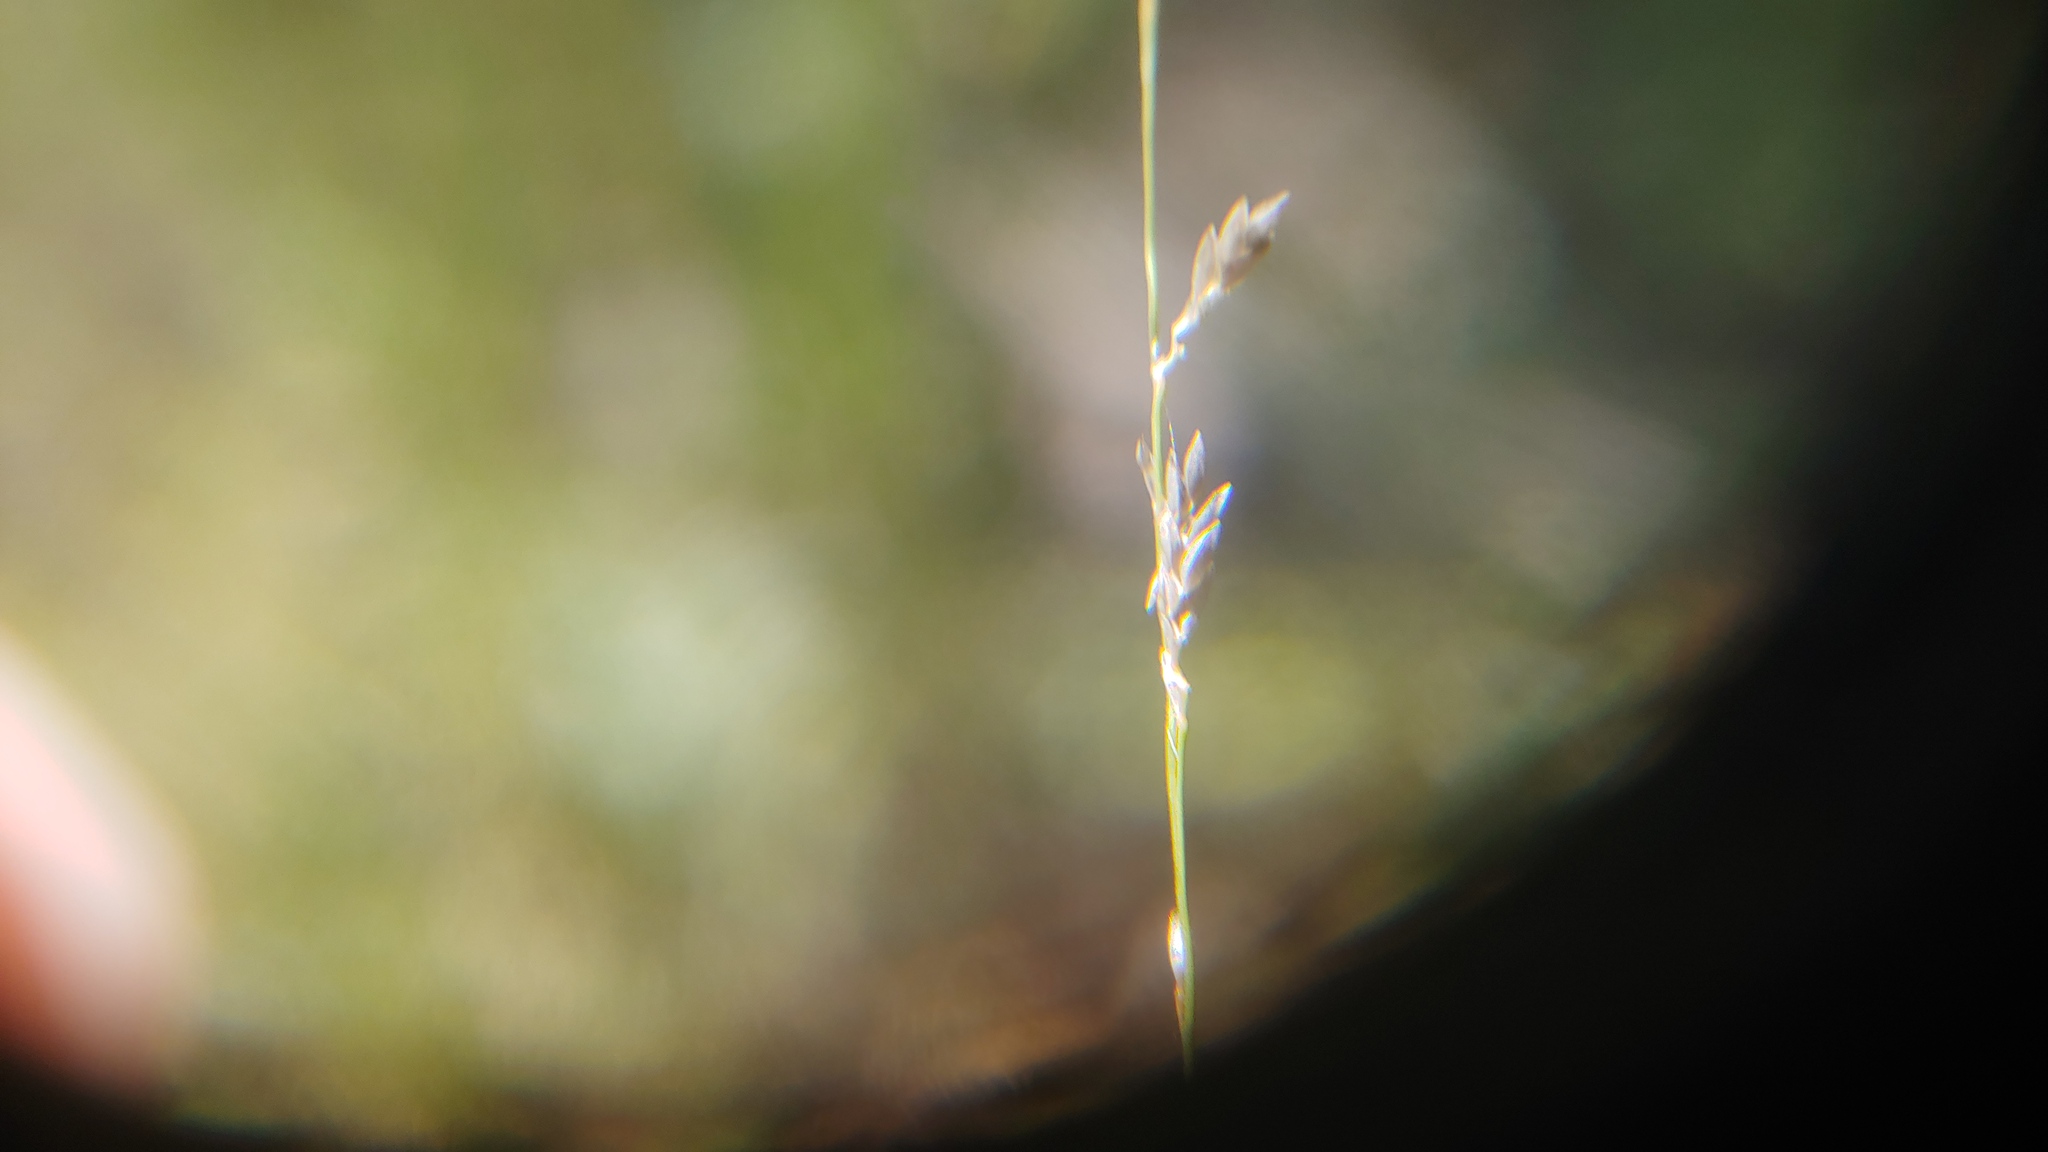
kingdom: Plantae
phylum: Tracheophyta
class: Liliopsida
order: Poales
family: Poaceae
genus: Eragrostis
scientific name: Eragrostis pectinacea
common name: Tufted lovegrass
